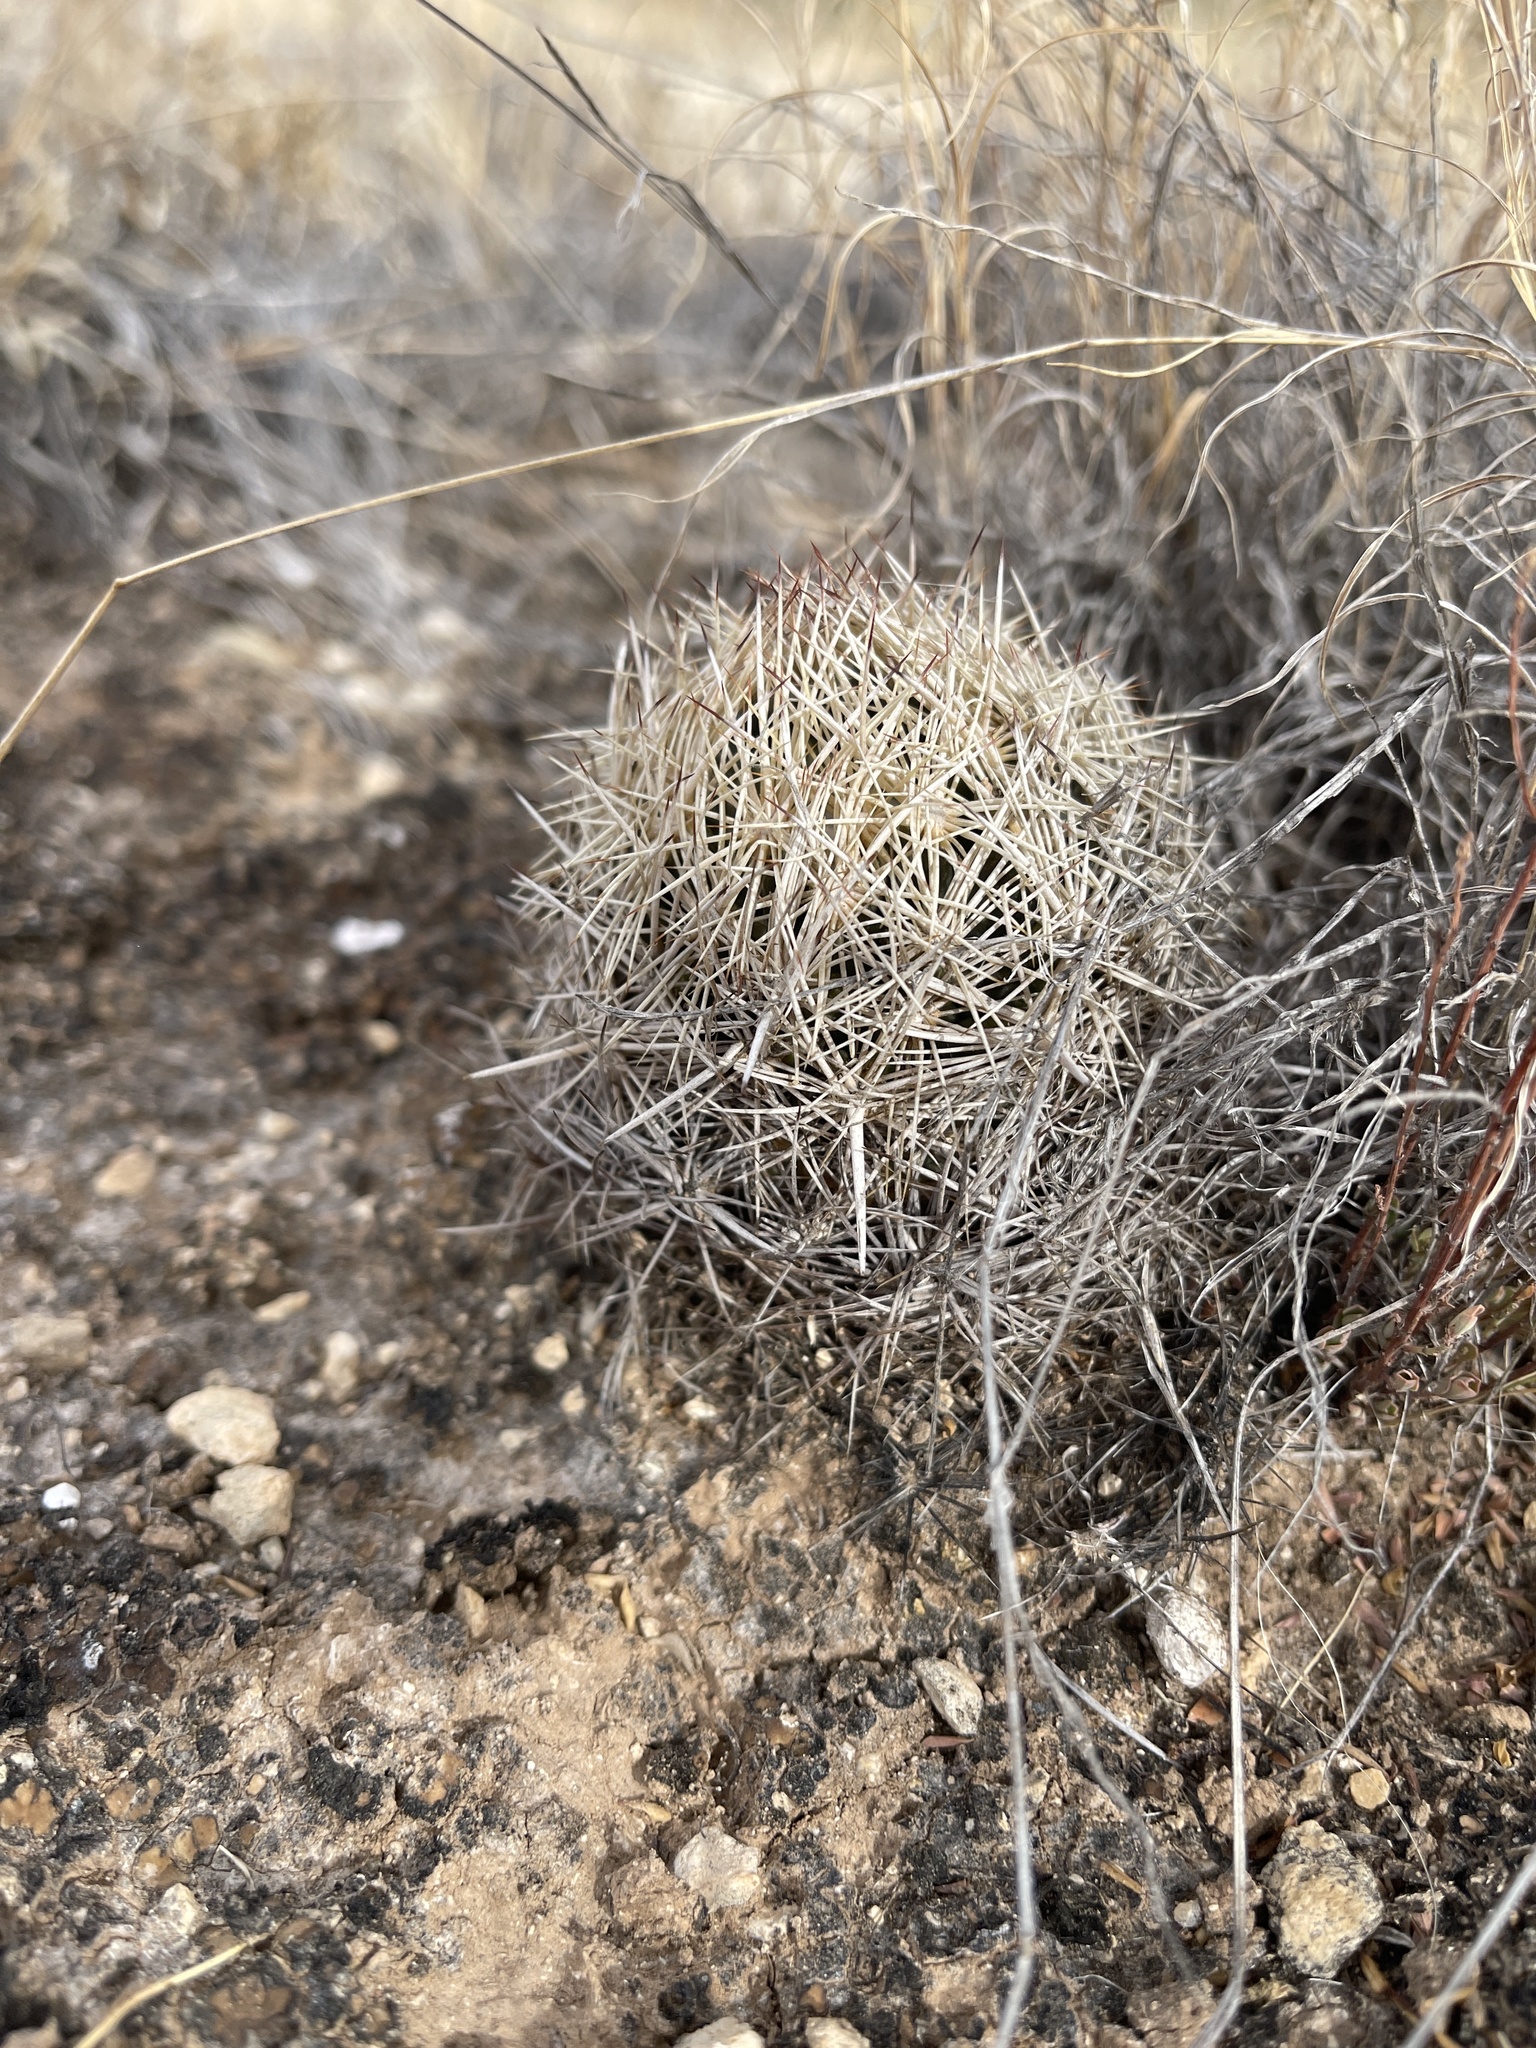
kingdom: Plantae
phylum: Tracheophyta
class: Magnoliopsida
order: Caryophyllales
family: Cactaceae
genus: Coryphantha
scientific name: Coryphantha echinus
